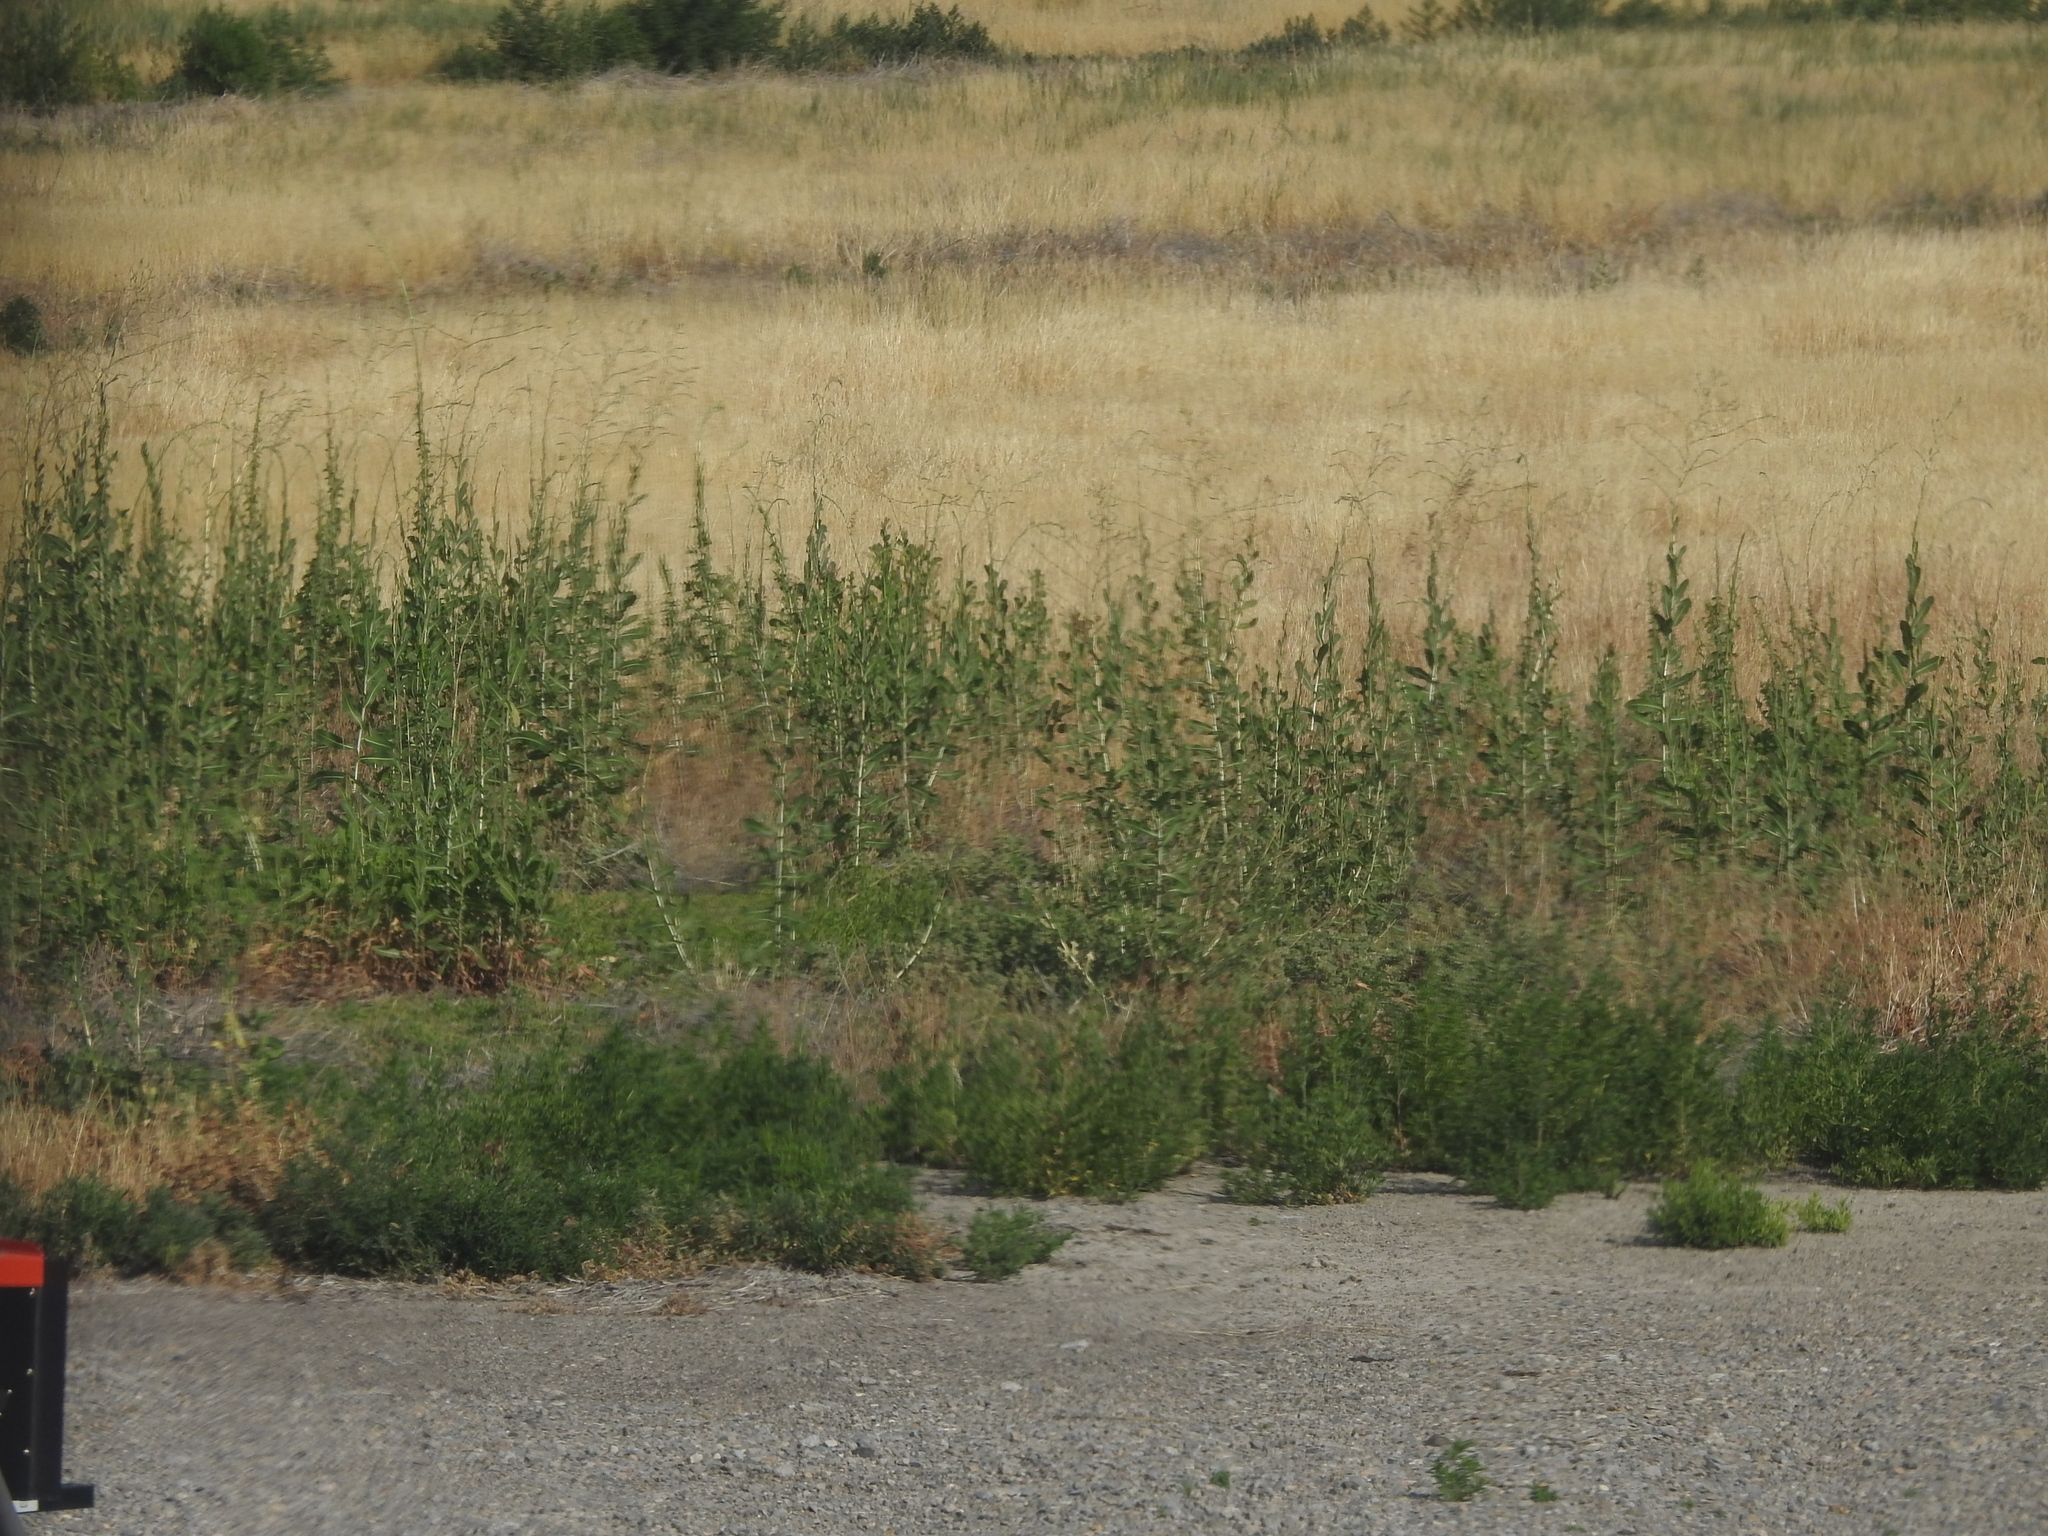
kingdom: Plantae
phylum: Tracheophyta
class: Magnoliopsida
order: Asterales
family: Asteraceae
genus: Lactuca
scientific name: Lactuca serriola
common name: Prickly lettuce
